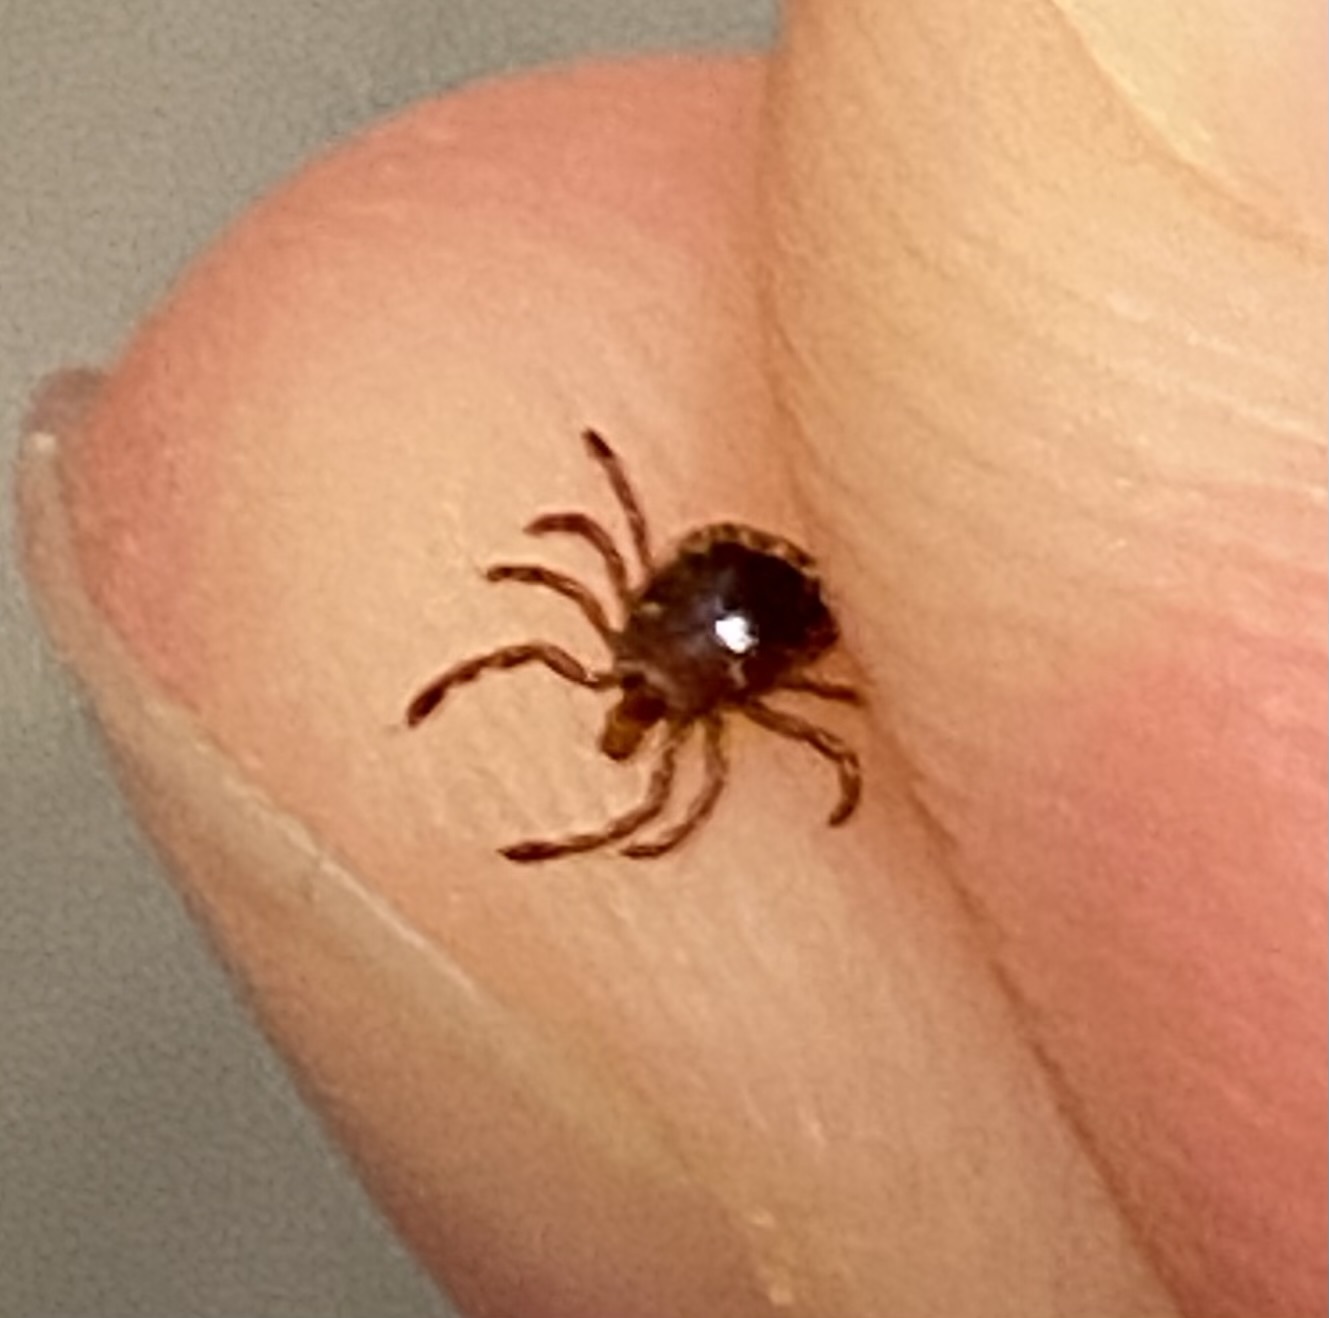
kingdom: Animalia
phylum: Arthropoda
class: Arachnida
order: Ixodida
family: Ixodidae
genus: Amblyomma
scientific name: Amblyomma americanum
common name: Lone star tick
